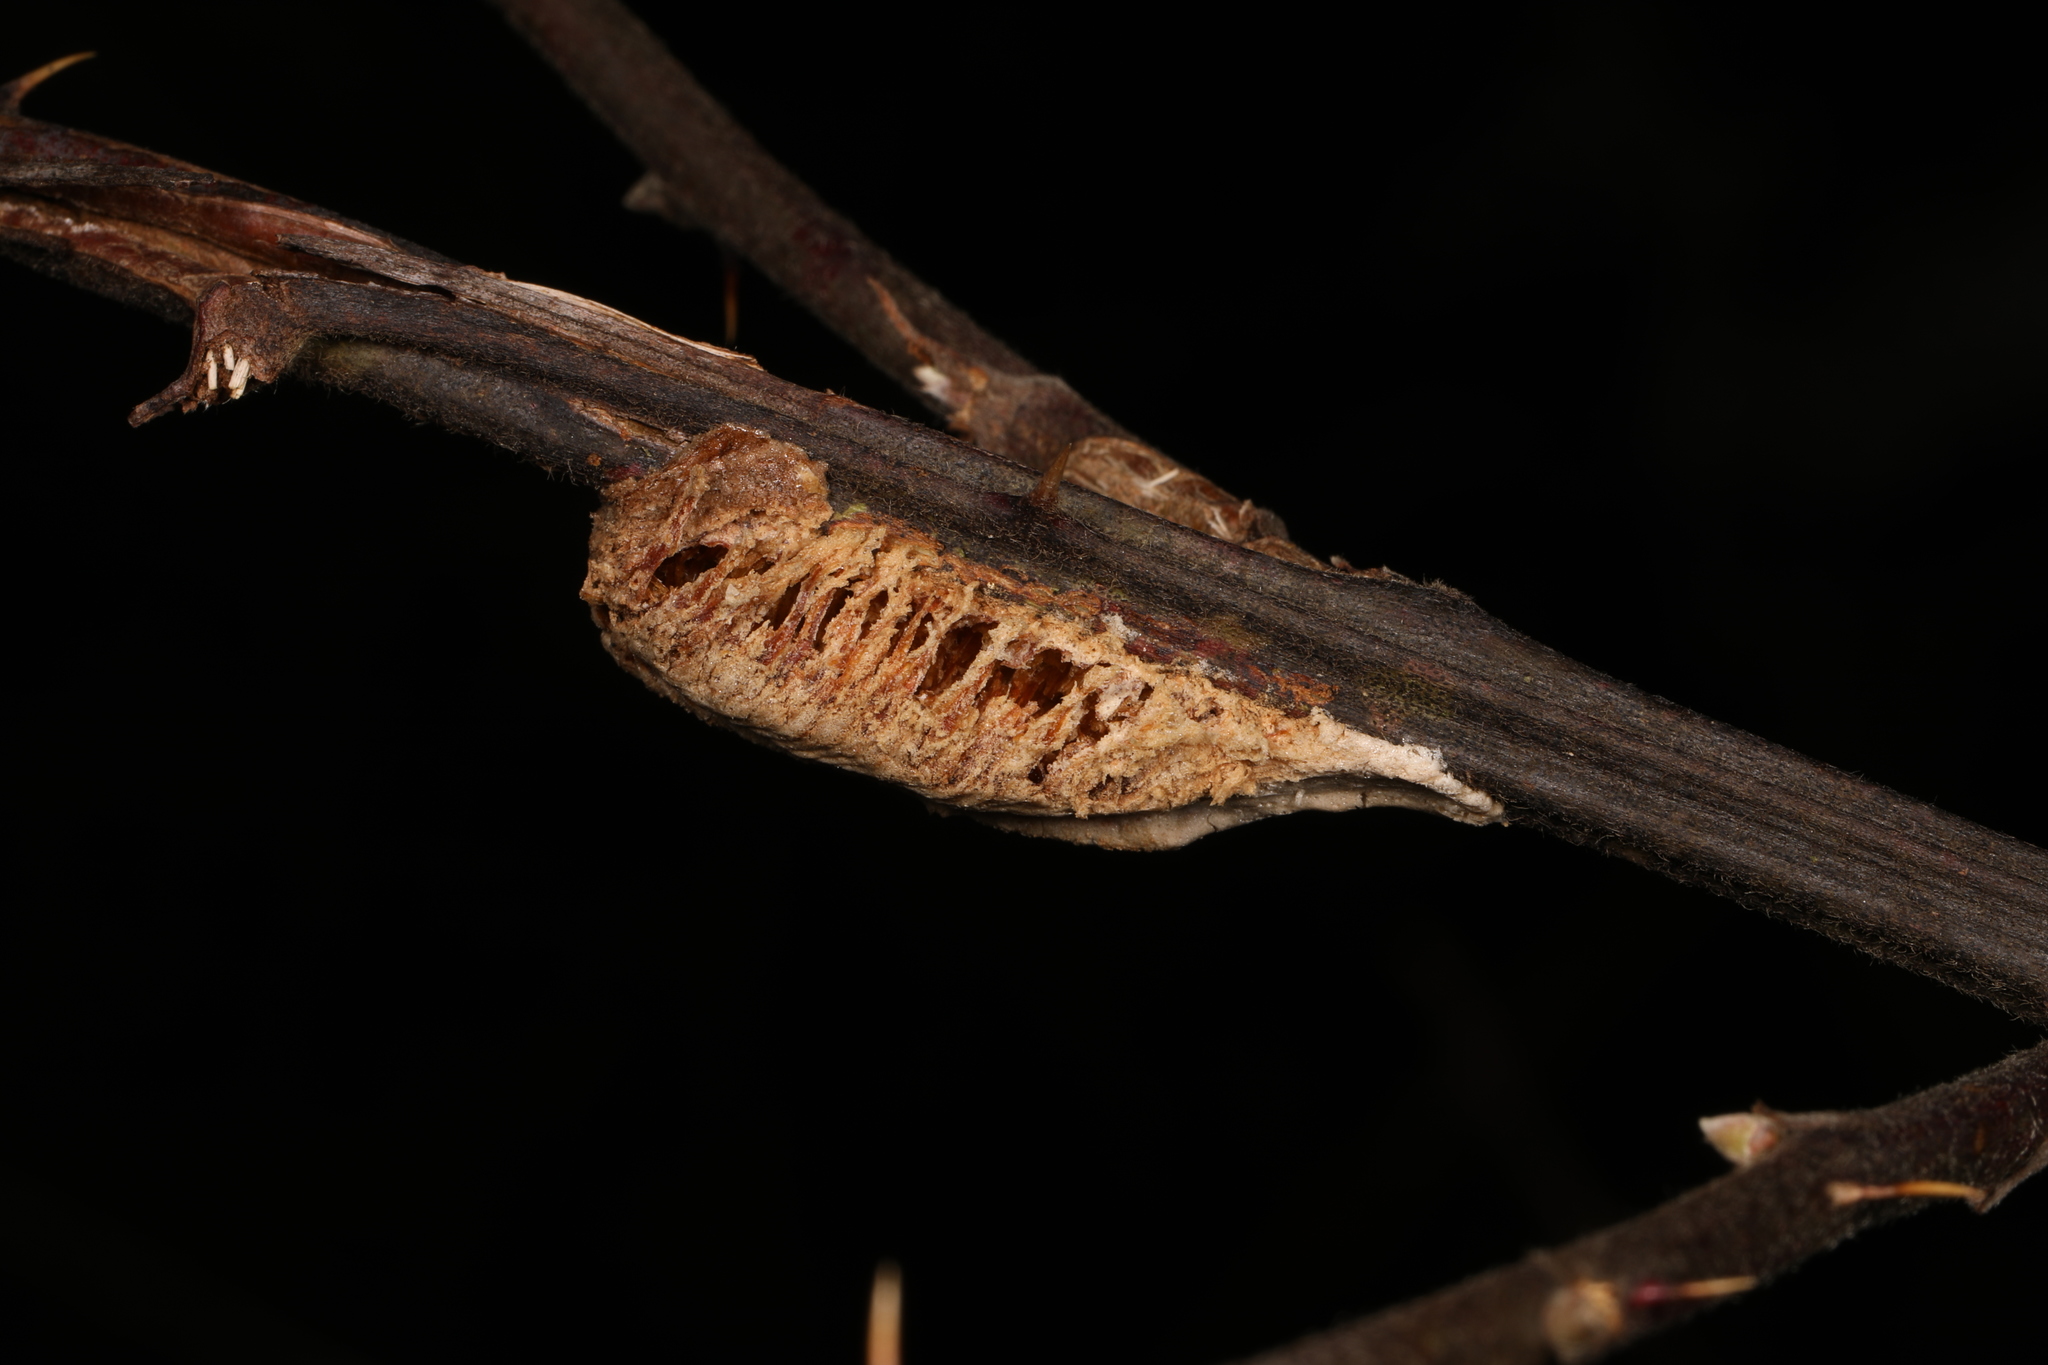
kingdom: Animalia
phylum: Arthropoda
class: Insecta
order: Mantodea
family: Mantidae
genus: Stagmomantis
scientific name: Stagmomantis carolina
